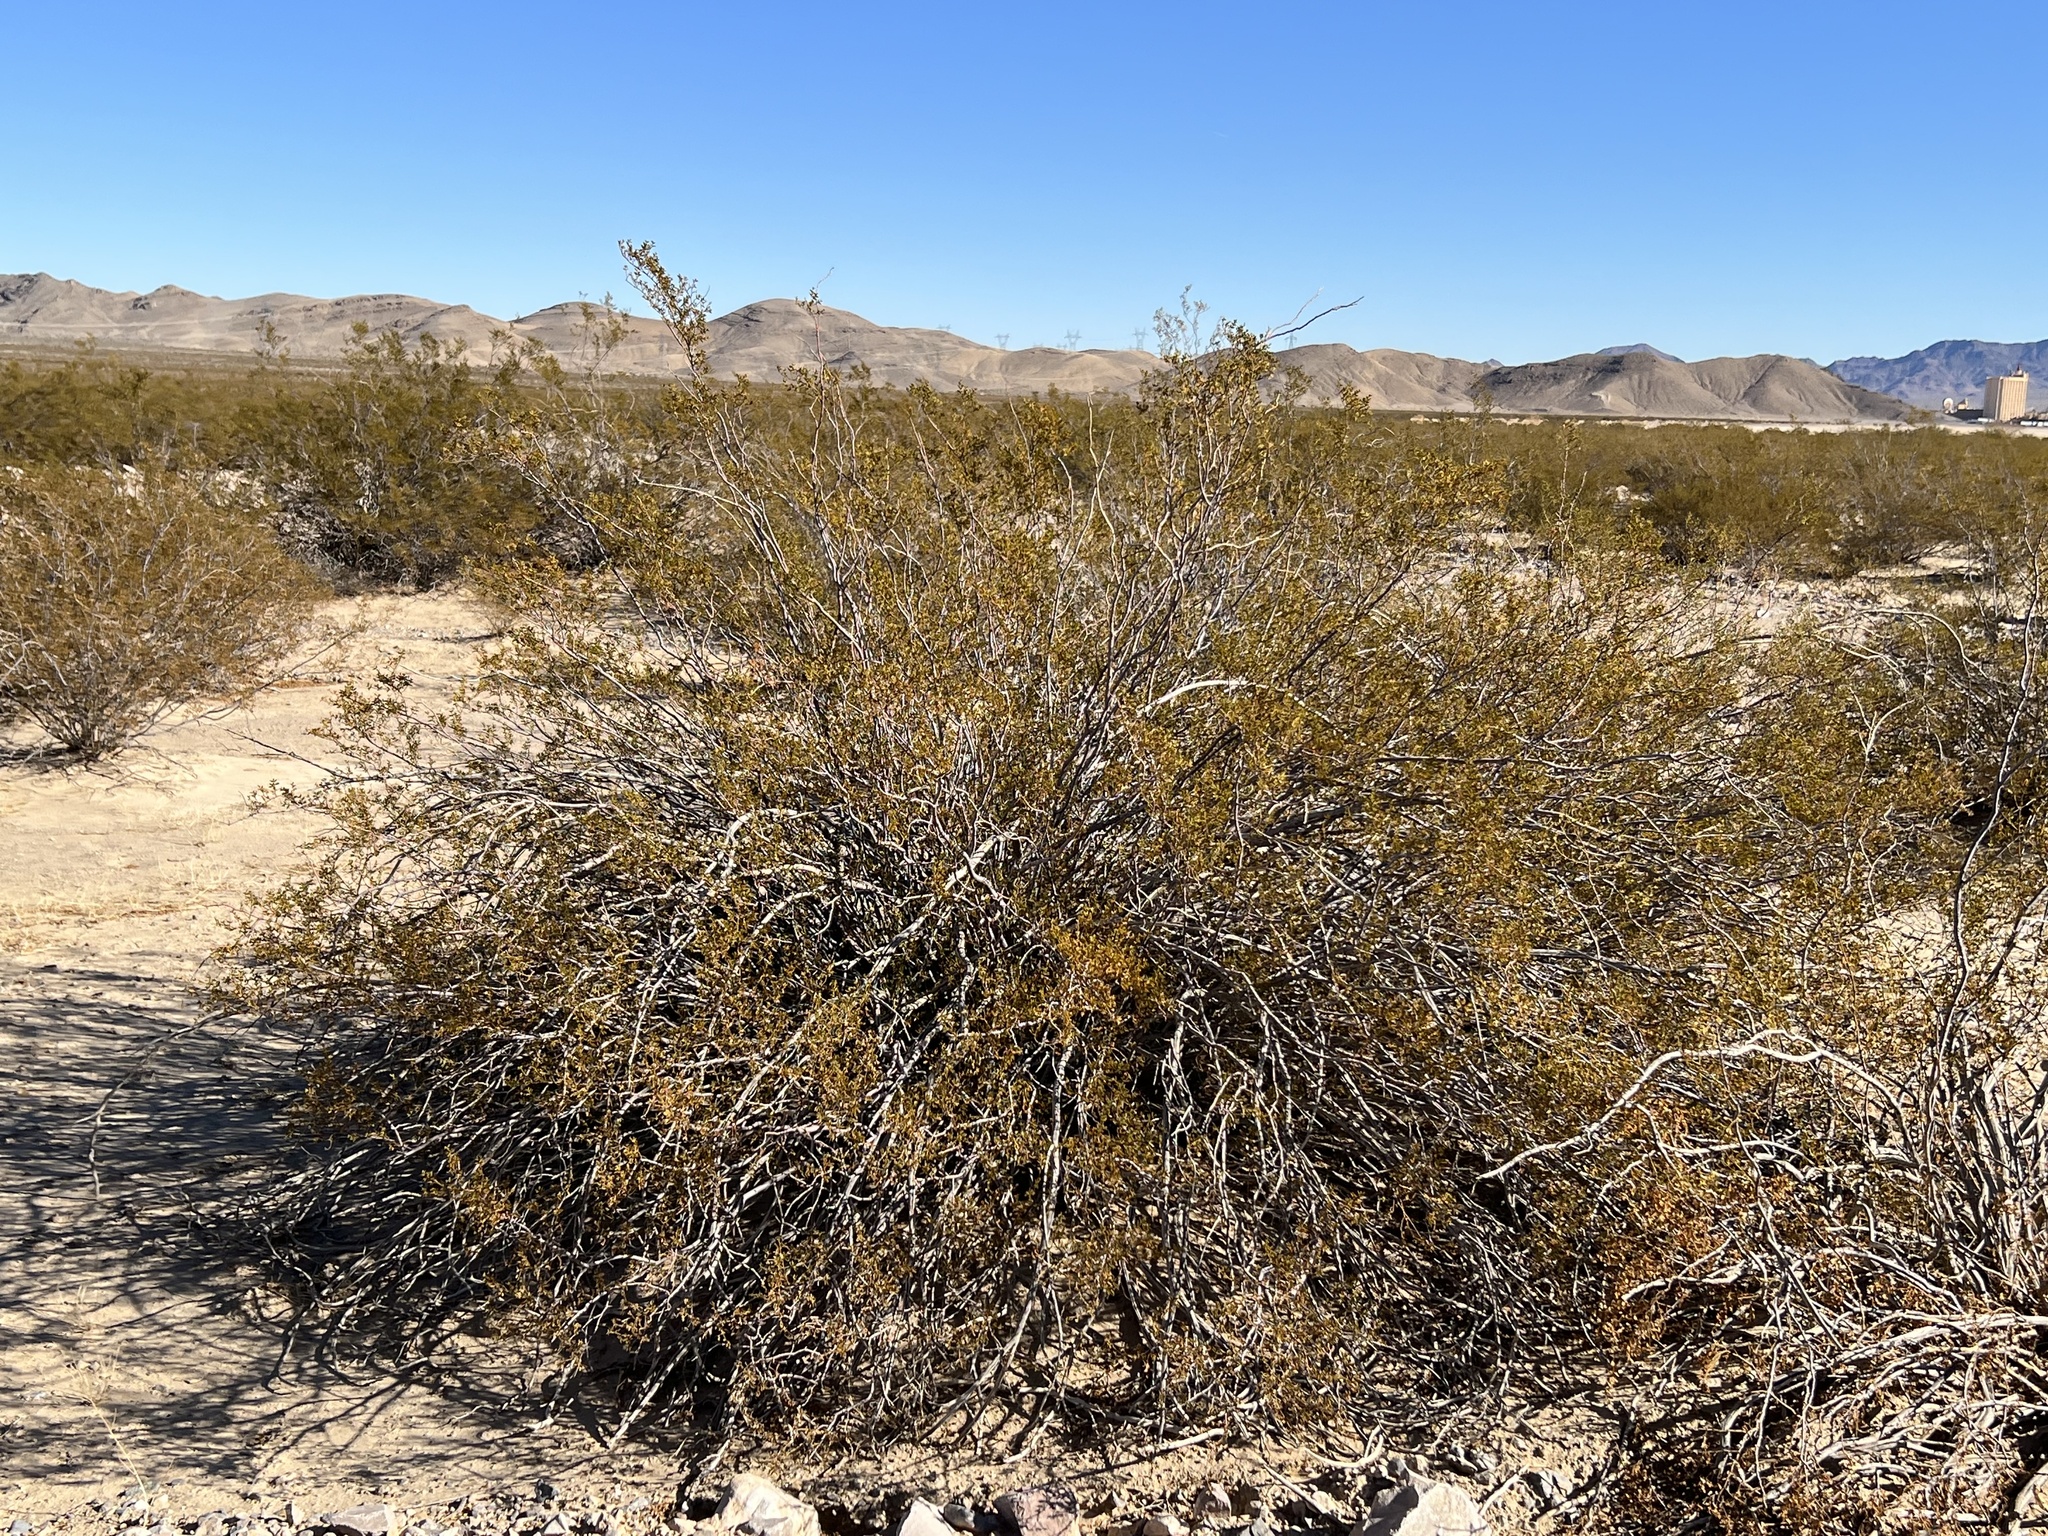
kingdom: Plantae
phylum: Tracheophyta
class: Magnoliopsida
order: Zygophyllales
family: Zygophyllaceae
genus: Larrea
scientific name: Larrea tridentata
